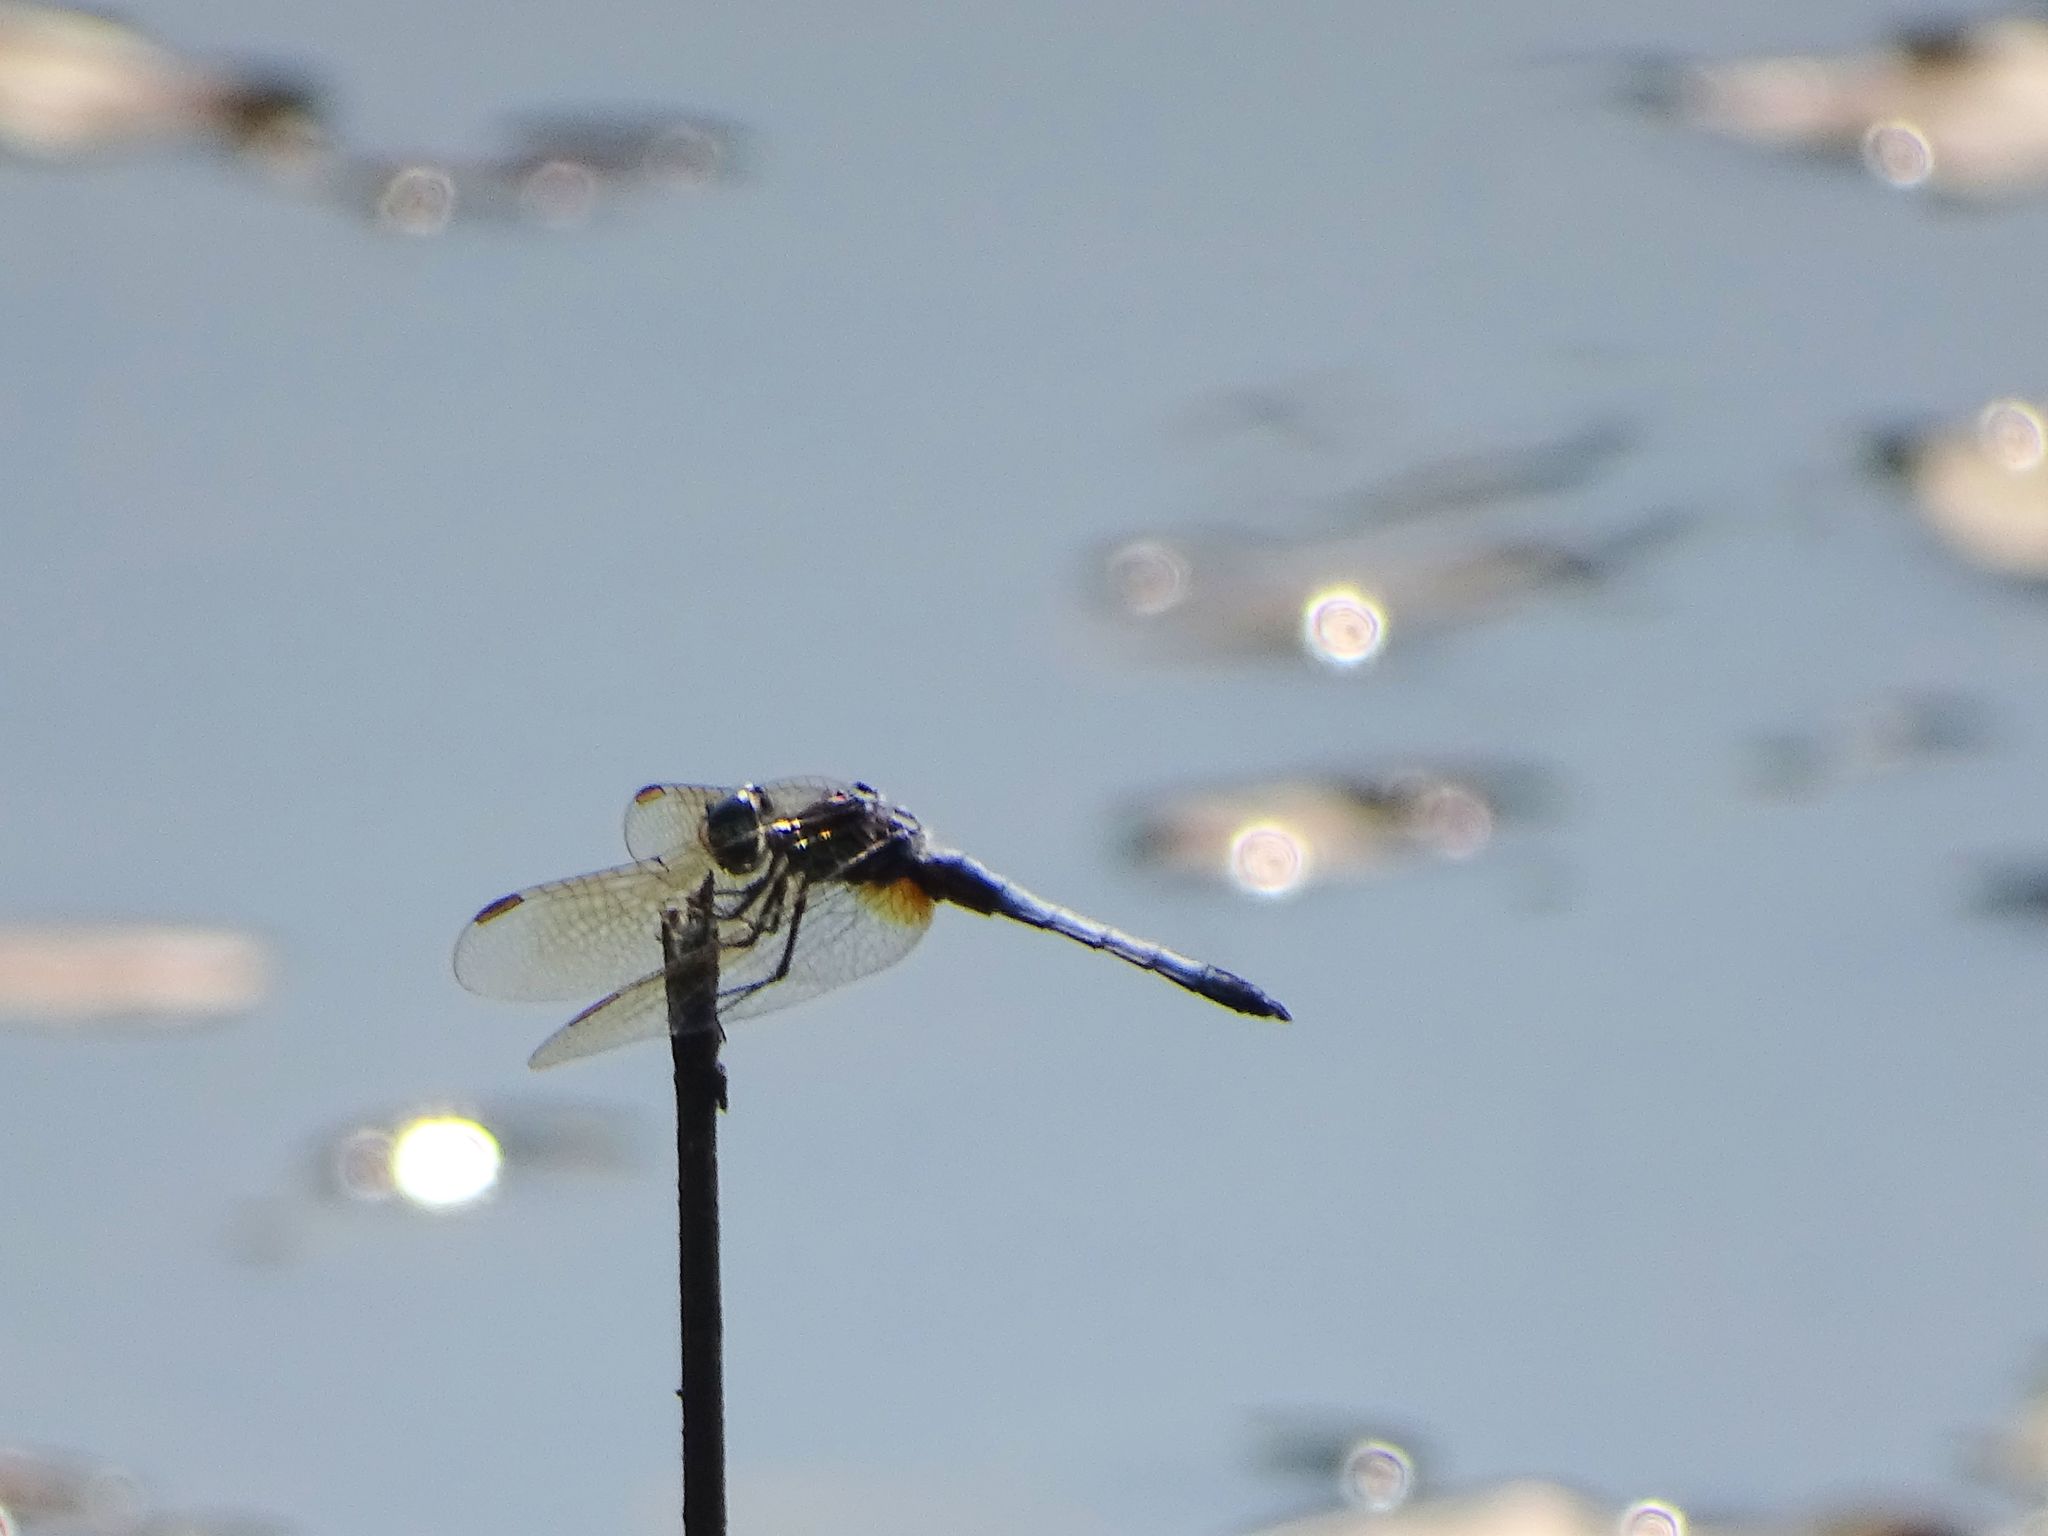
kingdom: Animalia
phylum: Arthropoda
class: Insecta
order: Odonata
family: Libellulidae
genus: Pachydiplax
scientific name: Pachydiplax longipennis
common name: Blue dasher
